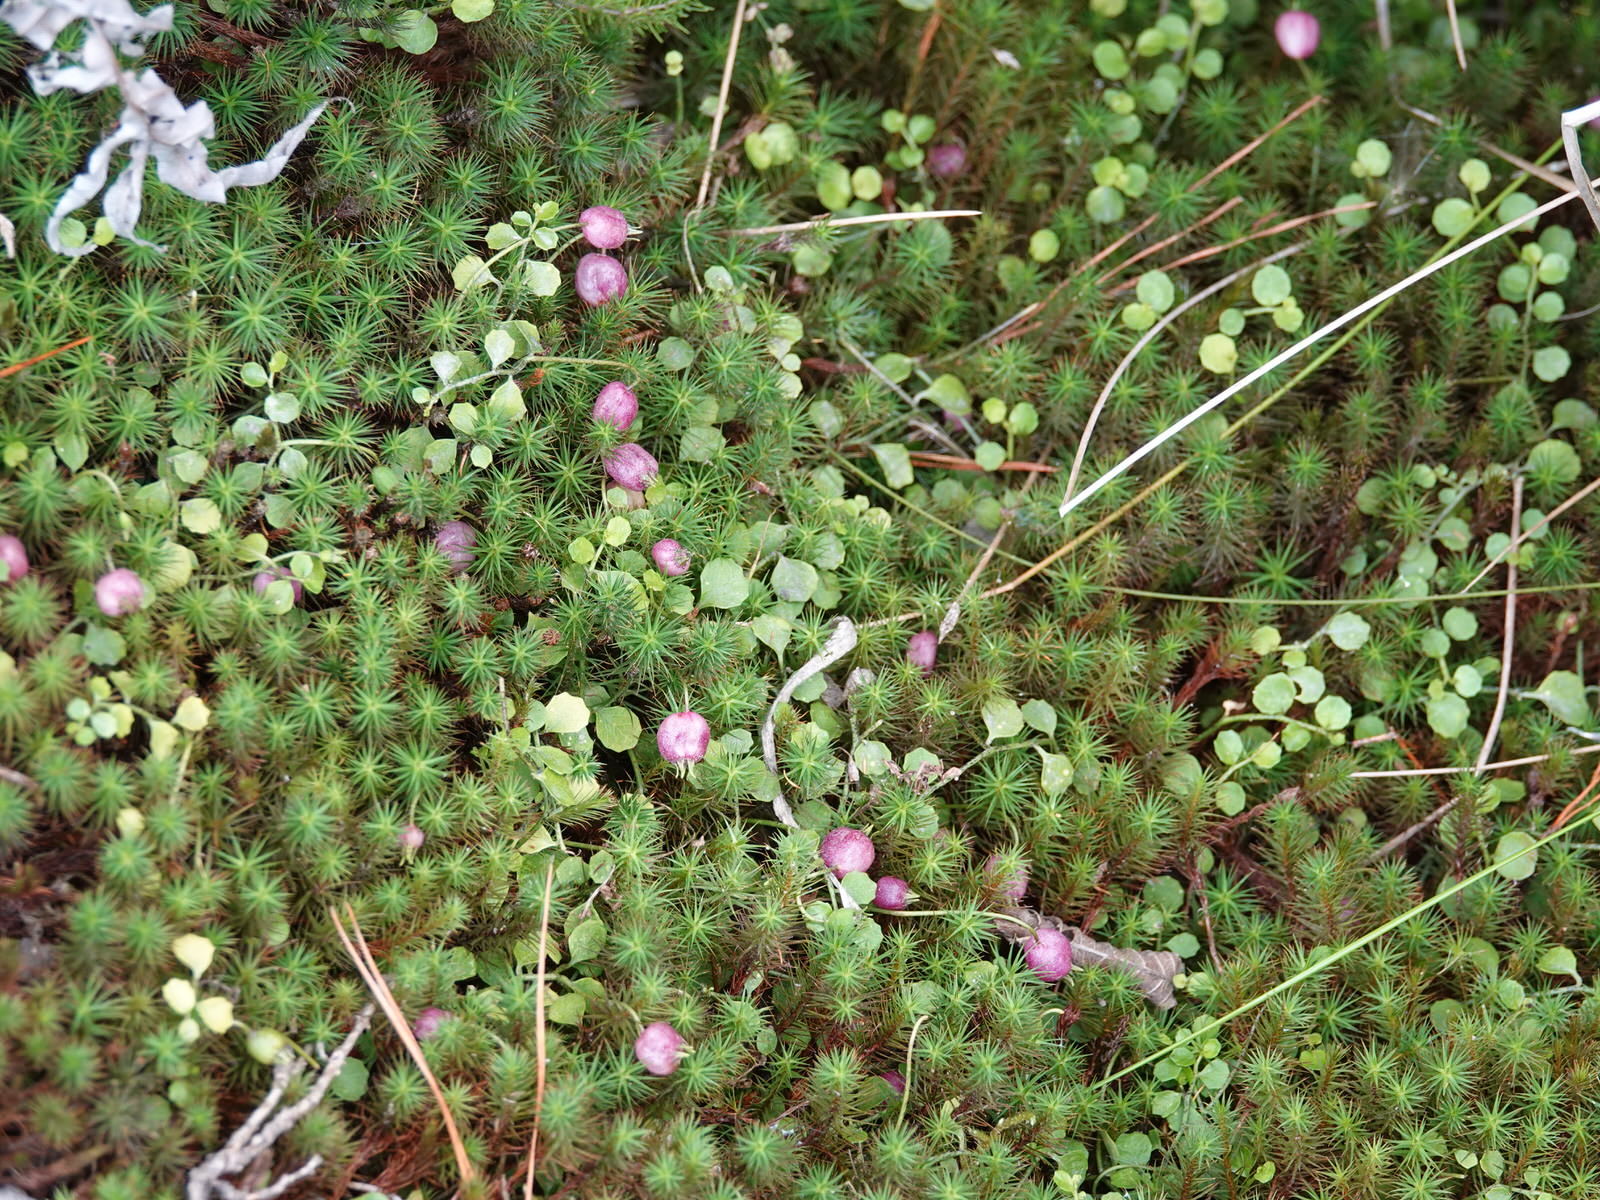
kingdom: Plantae
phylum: Tracheophyta
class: Magnoliopsida
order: Asterales
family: Campanulaceae
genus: Lobelia
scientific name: Lobelia angulata
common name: Lawn lobelia
